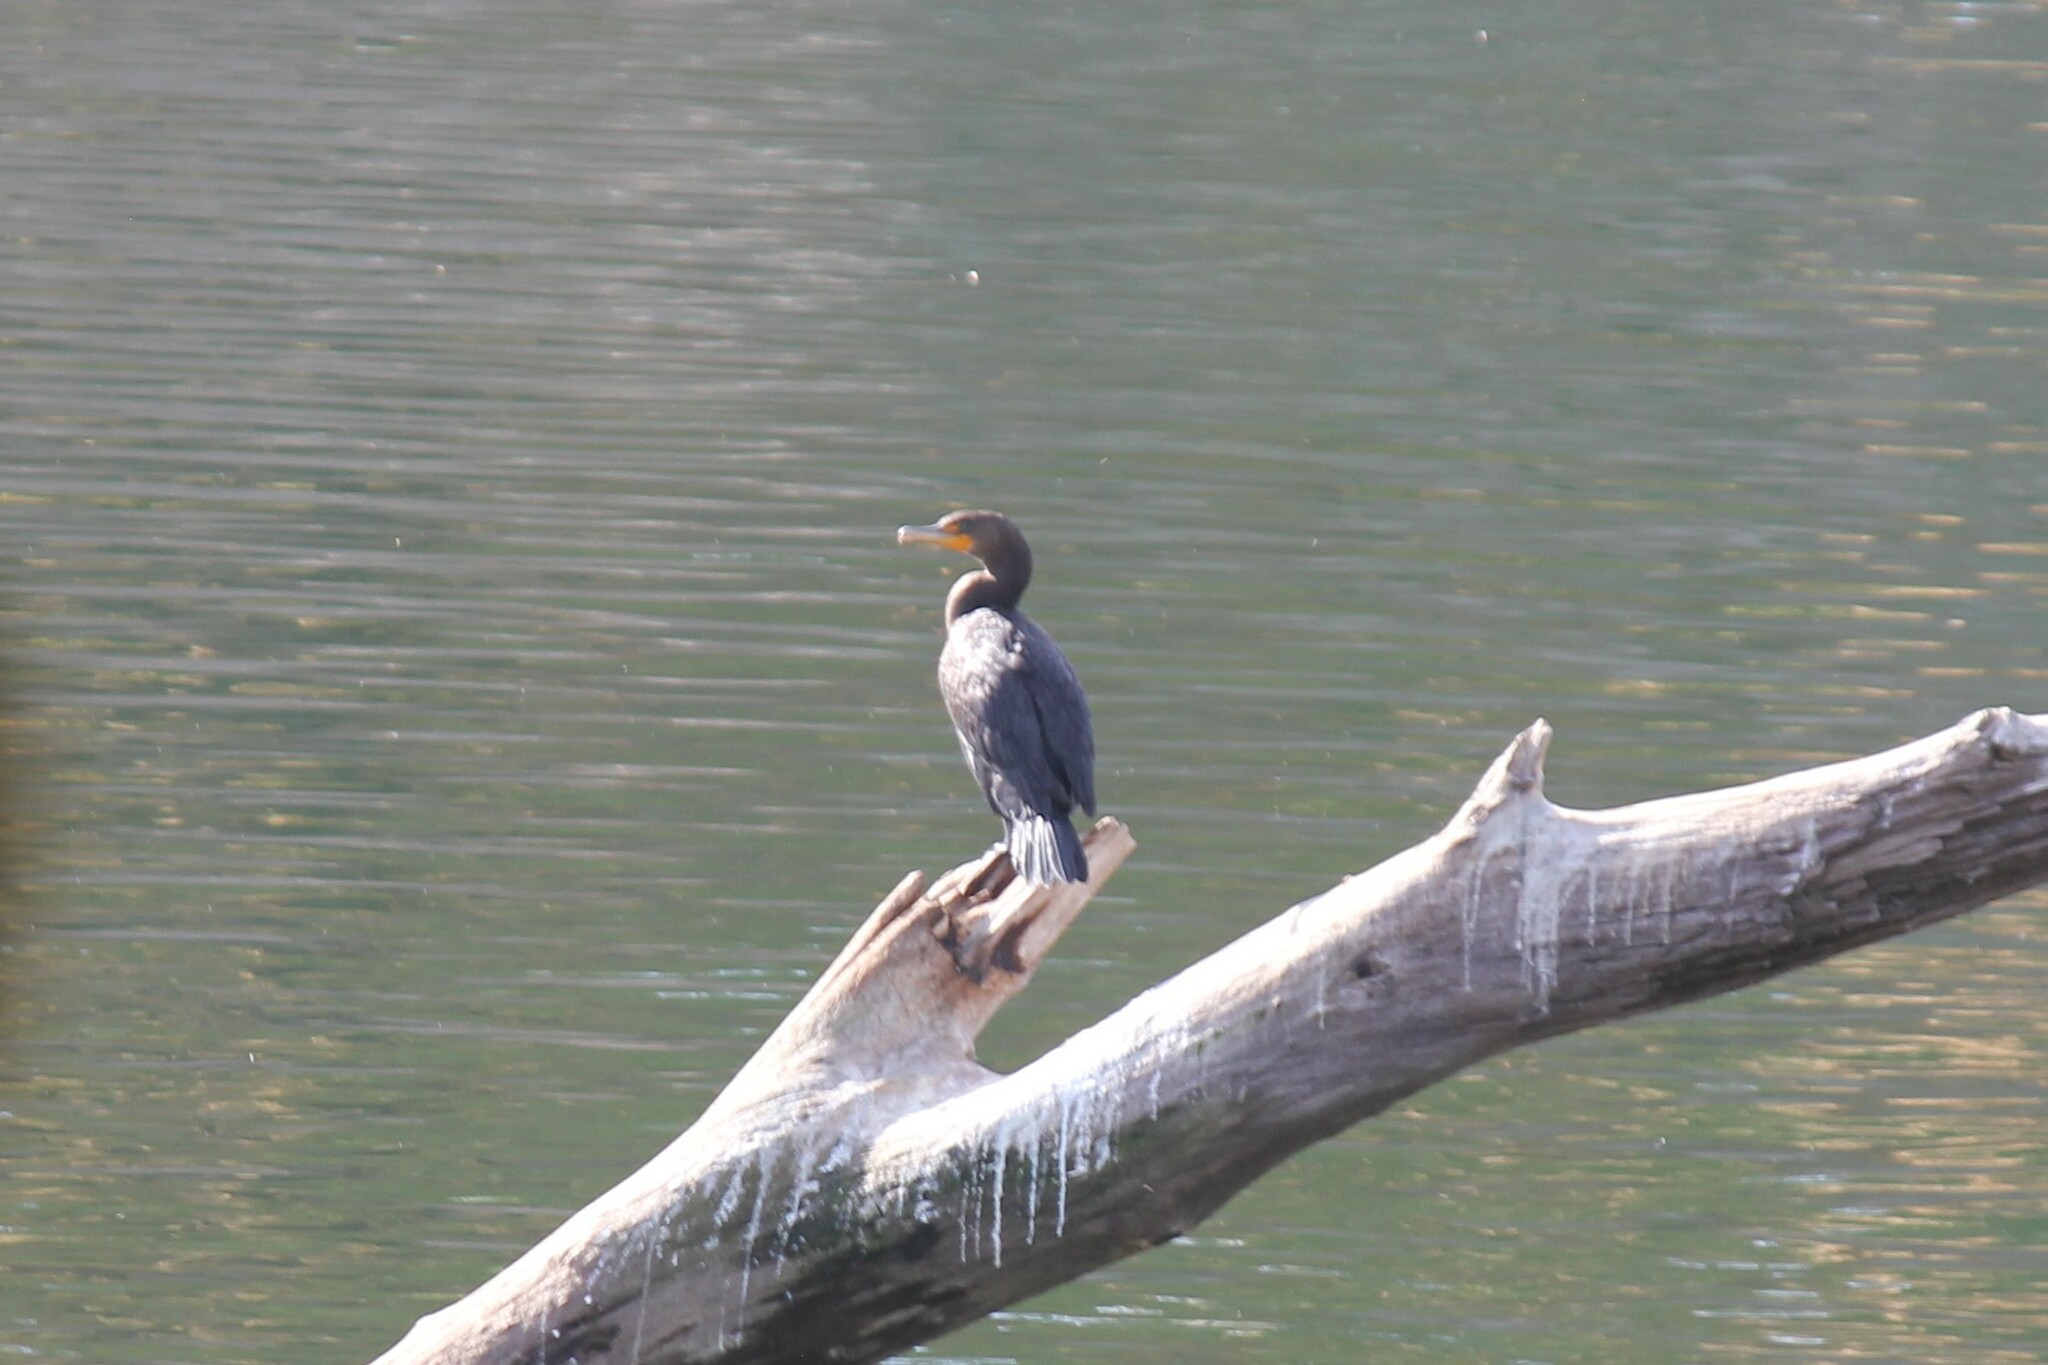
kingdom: Animalia
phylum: Chordata
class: Aves
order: Suliformes
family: Phalacrocoracidae
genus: Phalacrocorax
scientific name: Phalacrocorax auritus
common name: Double-crested cormorant
